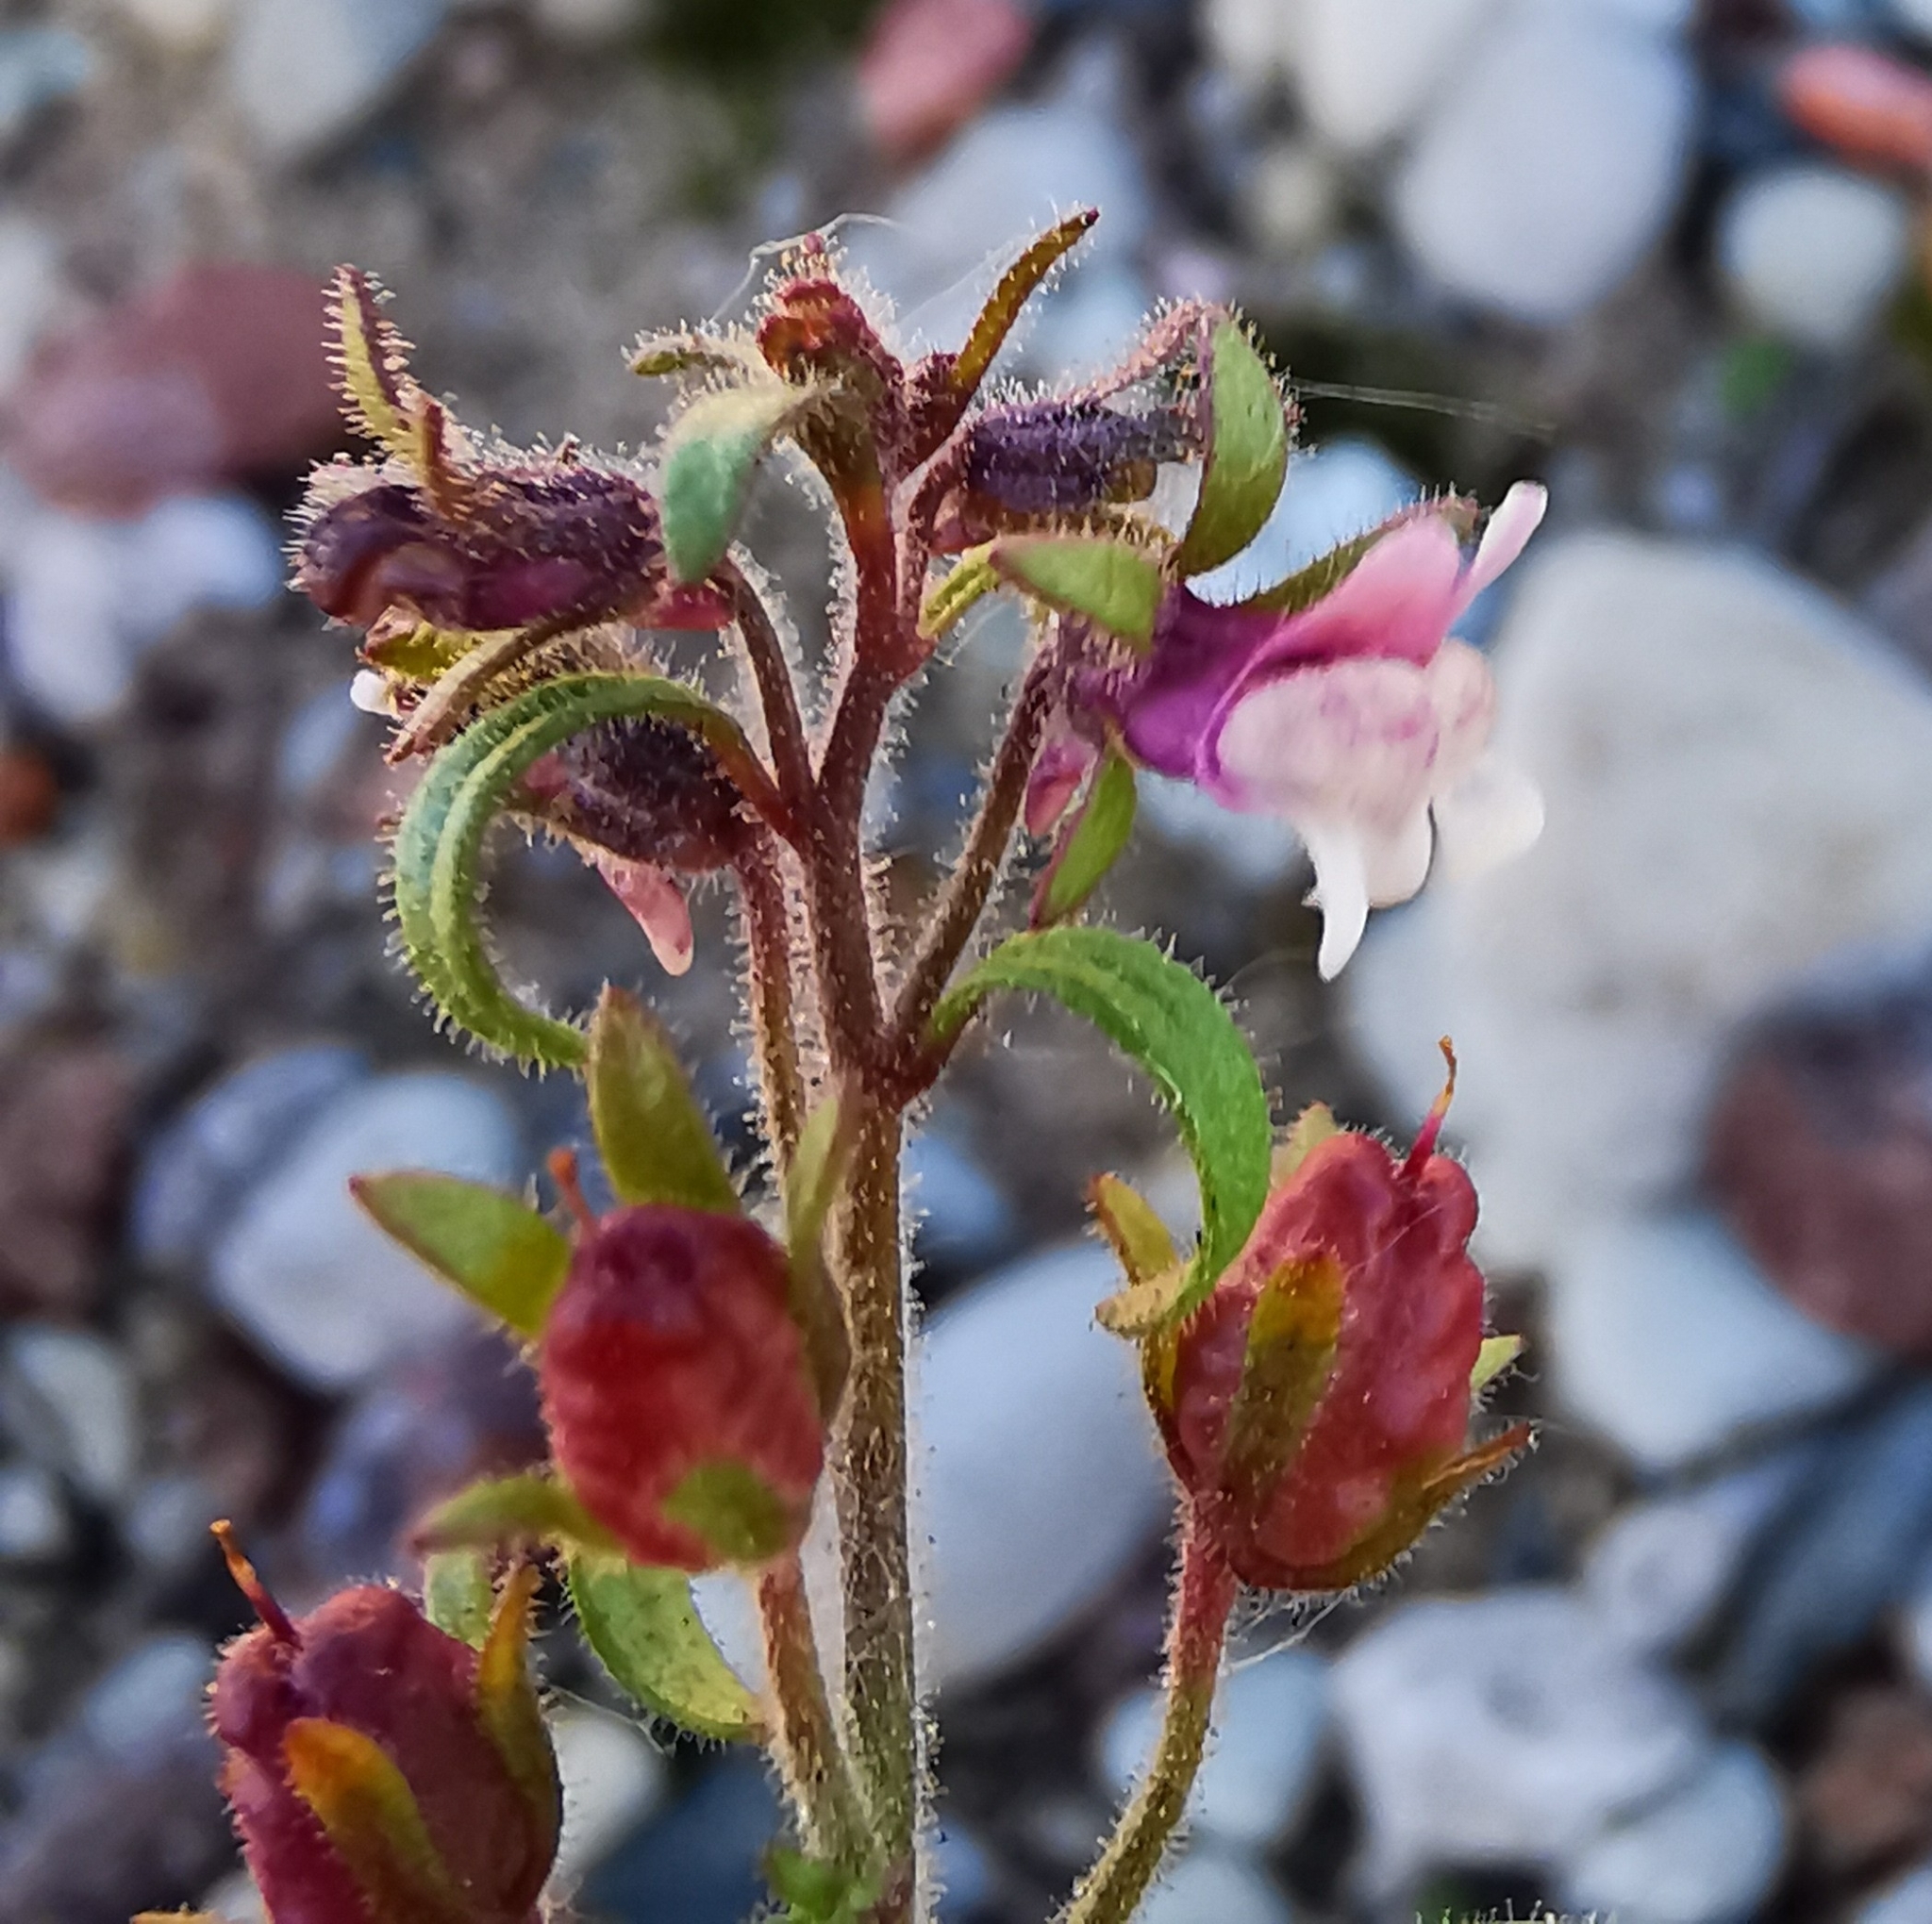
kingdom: Plantae
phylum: Tracheophyta
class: Magnoliopsida
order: Lamiales
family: Plantaginaceae
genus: Chaenorhinum
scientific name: Chaenorhinum minus
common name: Dwarf snapdragon
